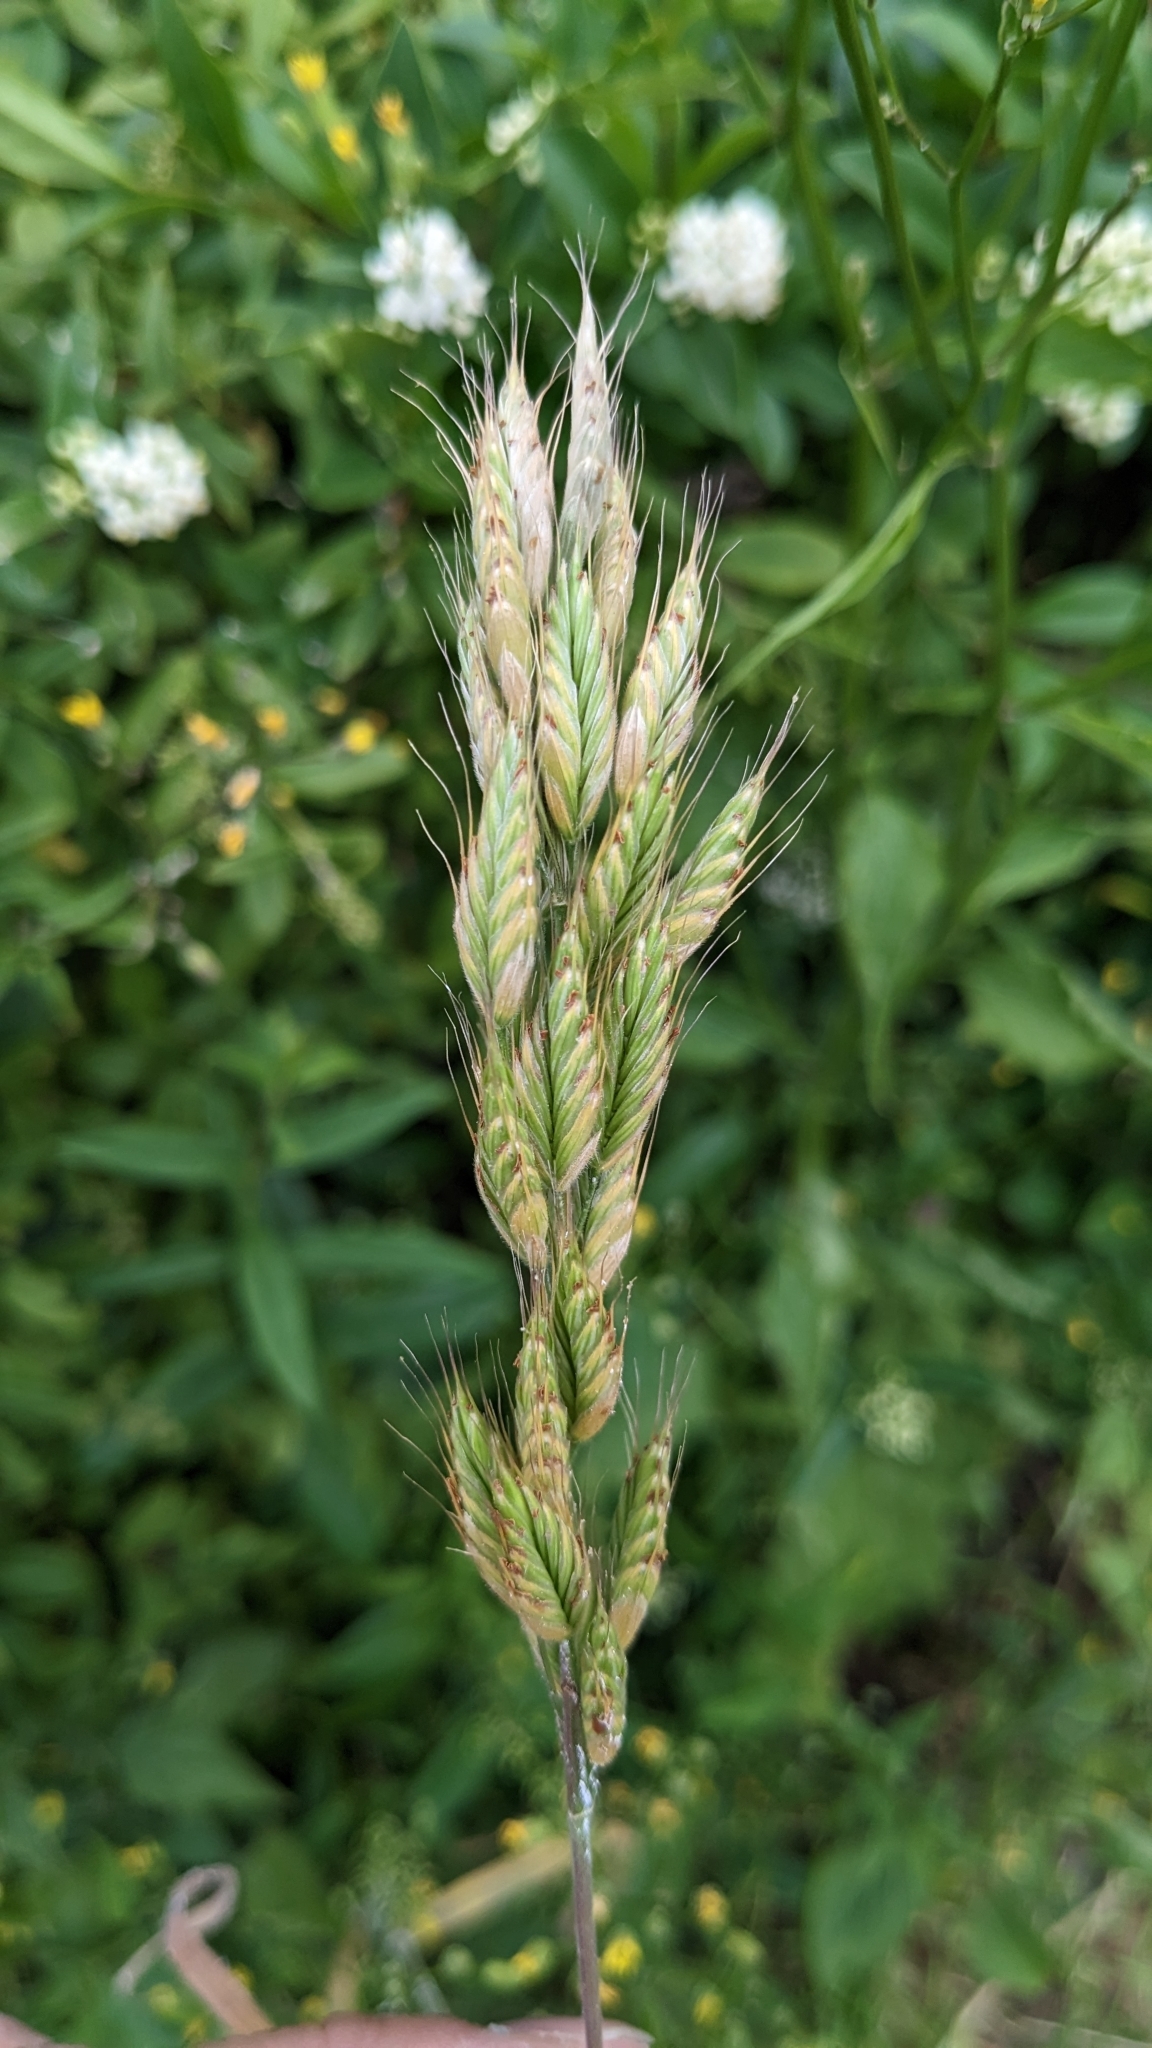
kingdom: Plantae
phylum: Tracheophyta
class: Liliopsida
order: Poales
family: Poaceae
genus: Bromus
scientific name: Bromus hordeaceus
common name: Soft brome
